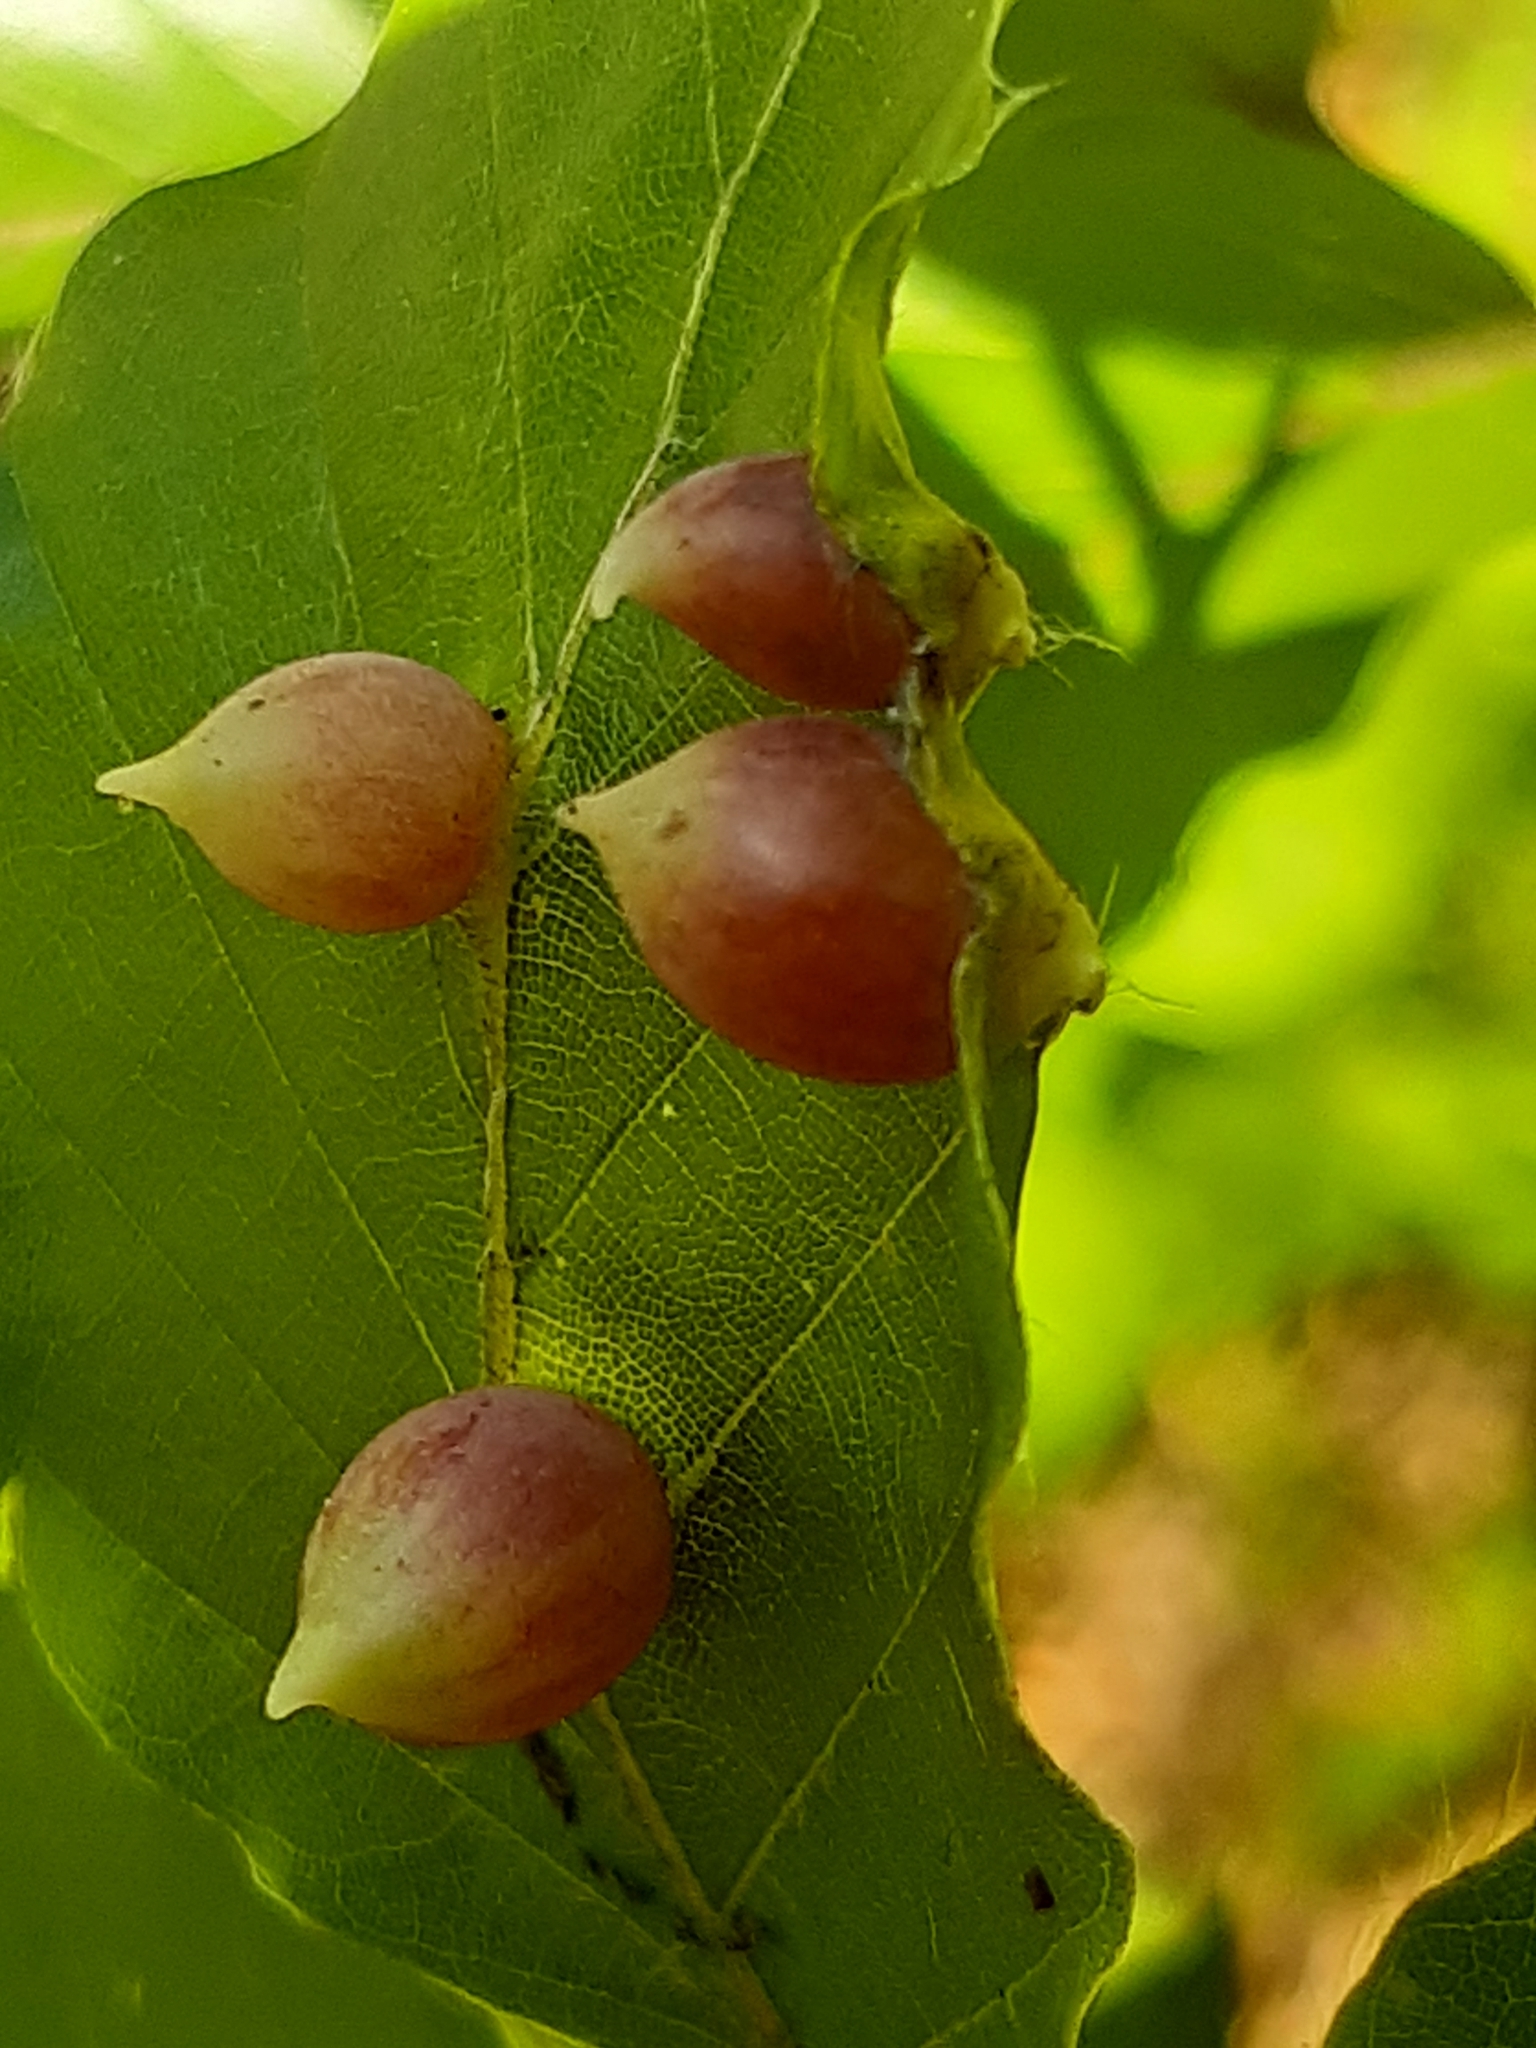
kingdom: Animalia
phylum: Arthropoda
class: Insecta
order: Diptera
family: Cecidomyiidae
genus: Mikiola
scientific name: Mikiola fagi
